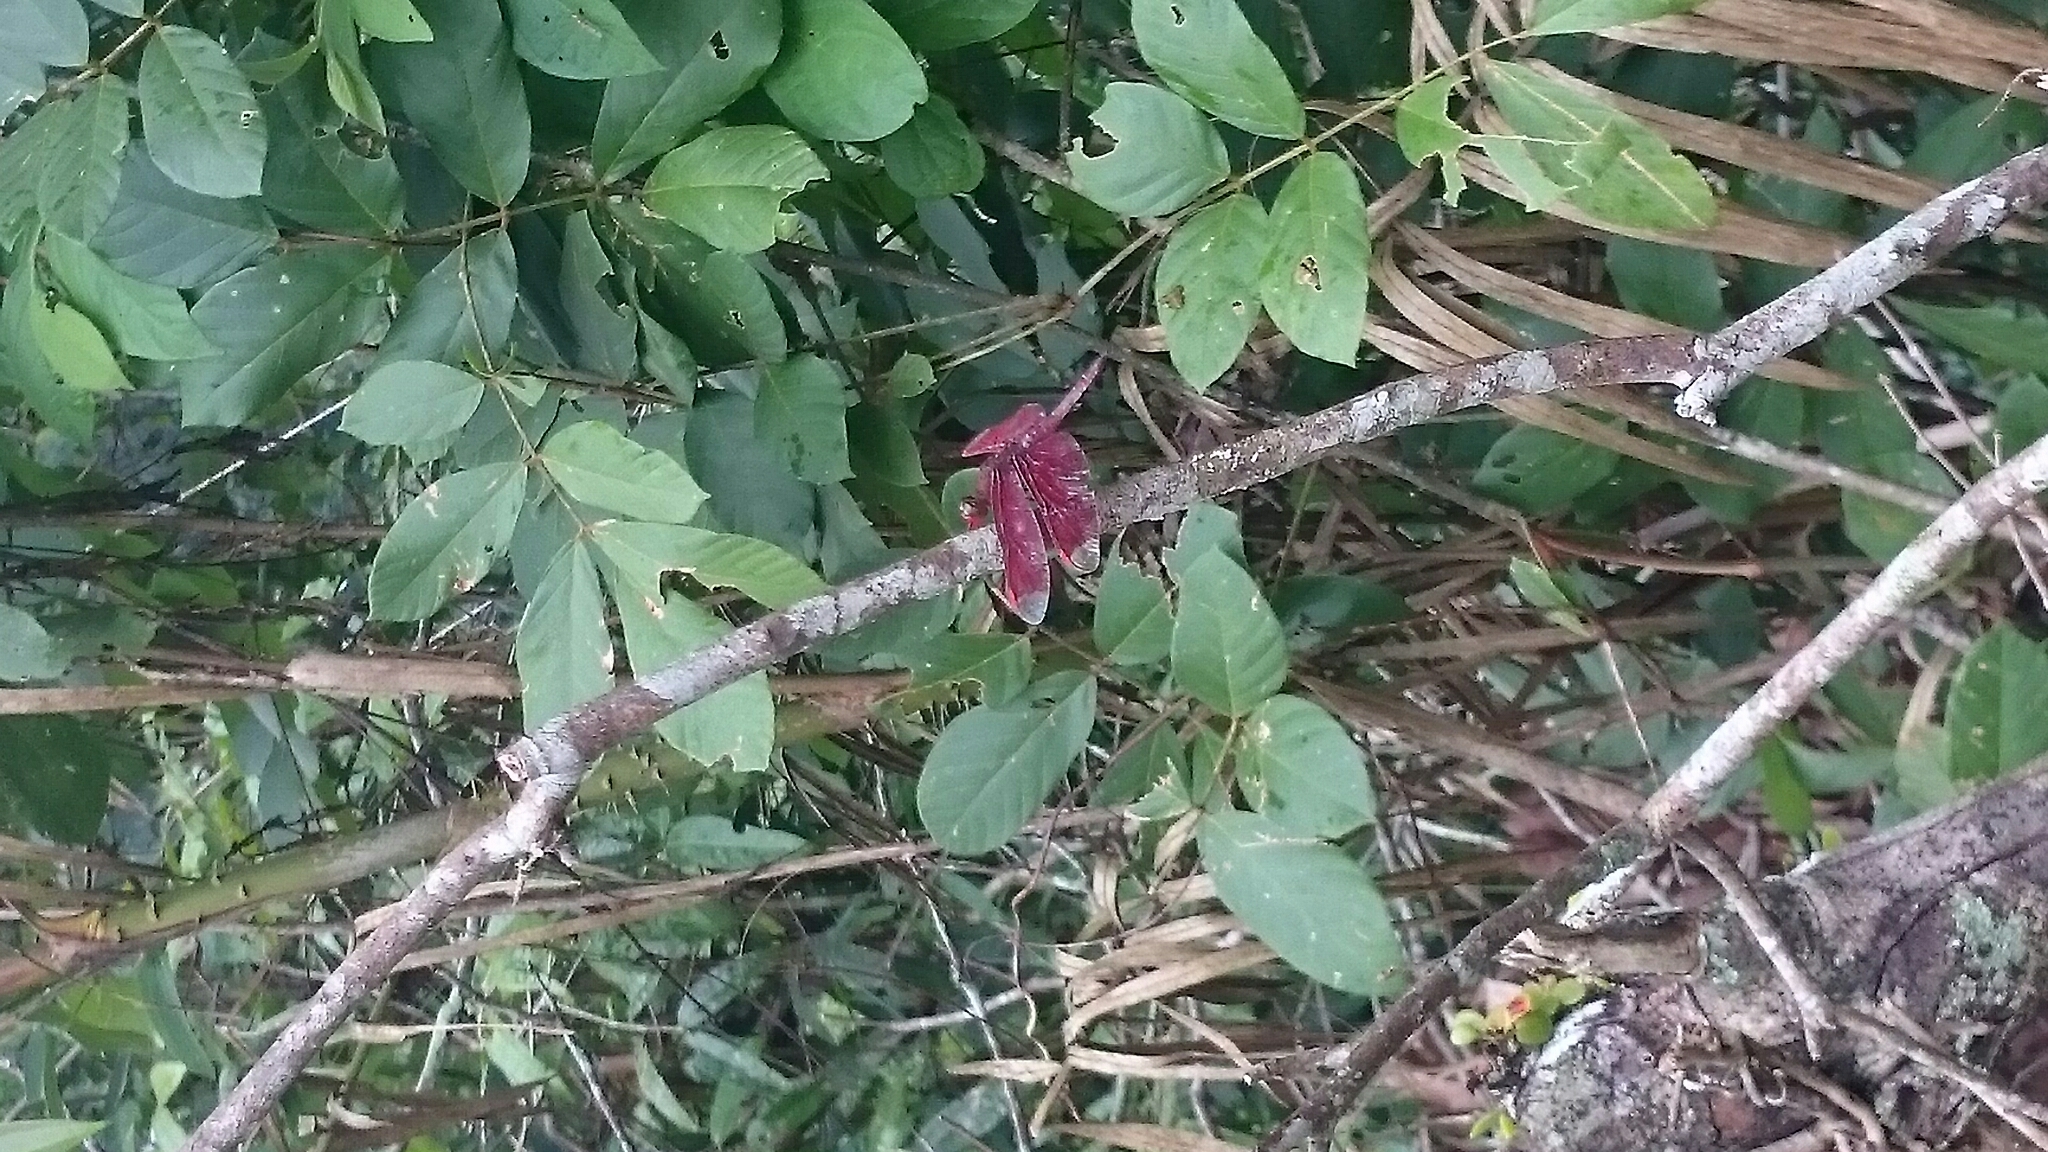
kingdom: Animalia
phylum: Arthropoda
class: Insecta
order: Odonata
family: Libellulidae
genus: Neurothemis
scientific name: Neurothemis fulvia
